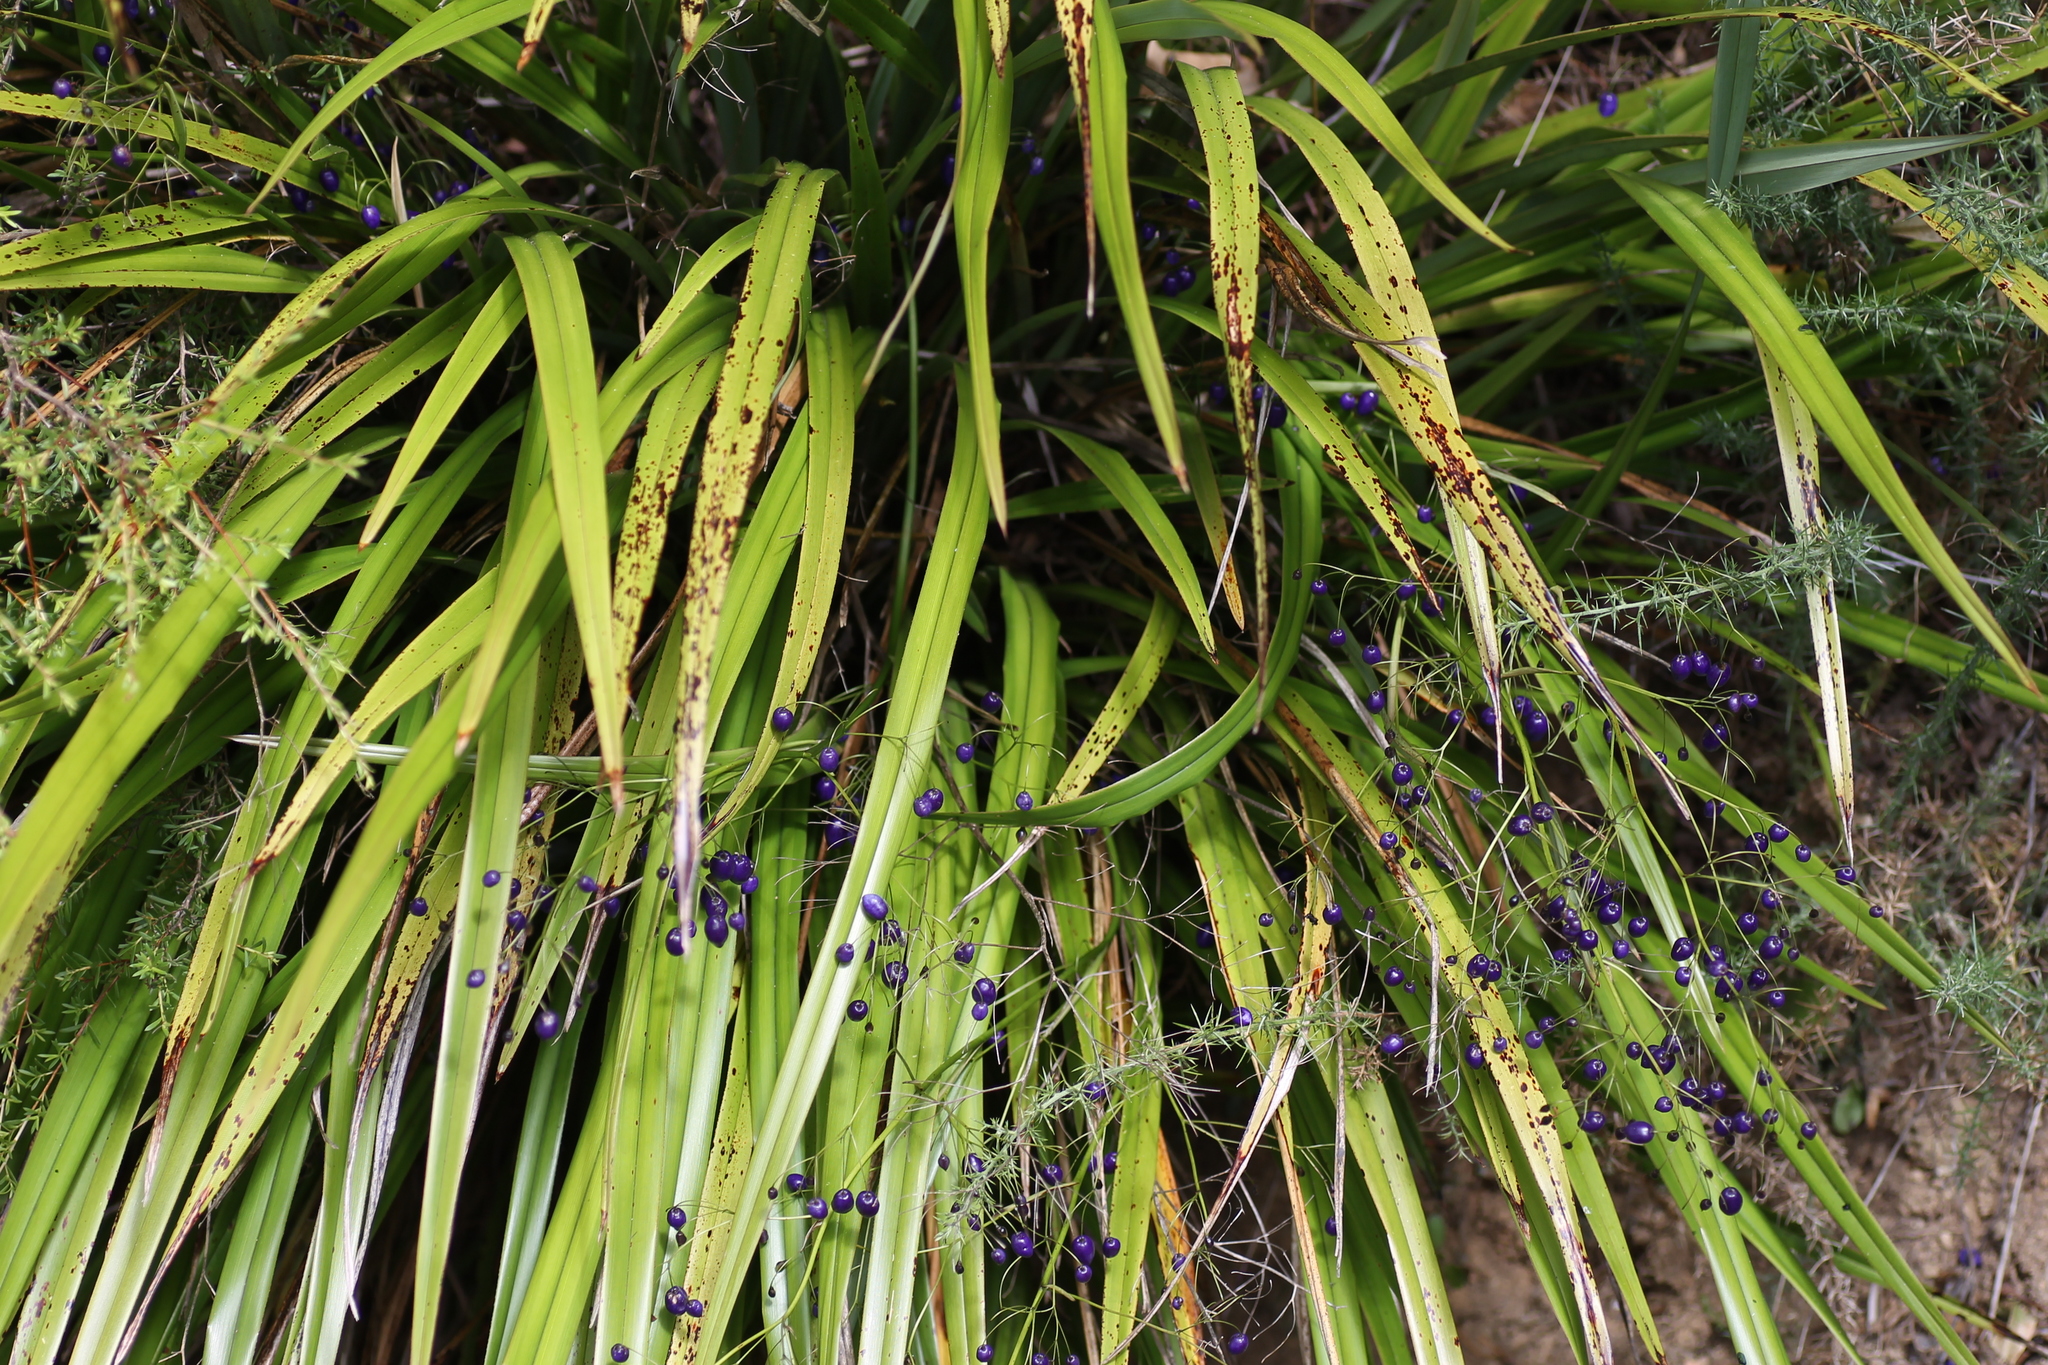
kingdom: Plantae
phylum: Tracheophyta
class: Liliopsida
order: Asparagales
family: Asphodelaceae
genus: Dianella
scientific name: Dianella nigra
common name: New zealand-blueberry
